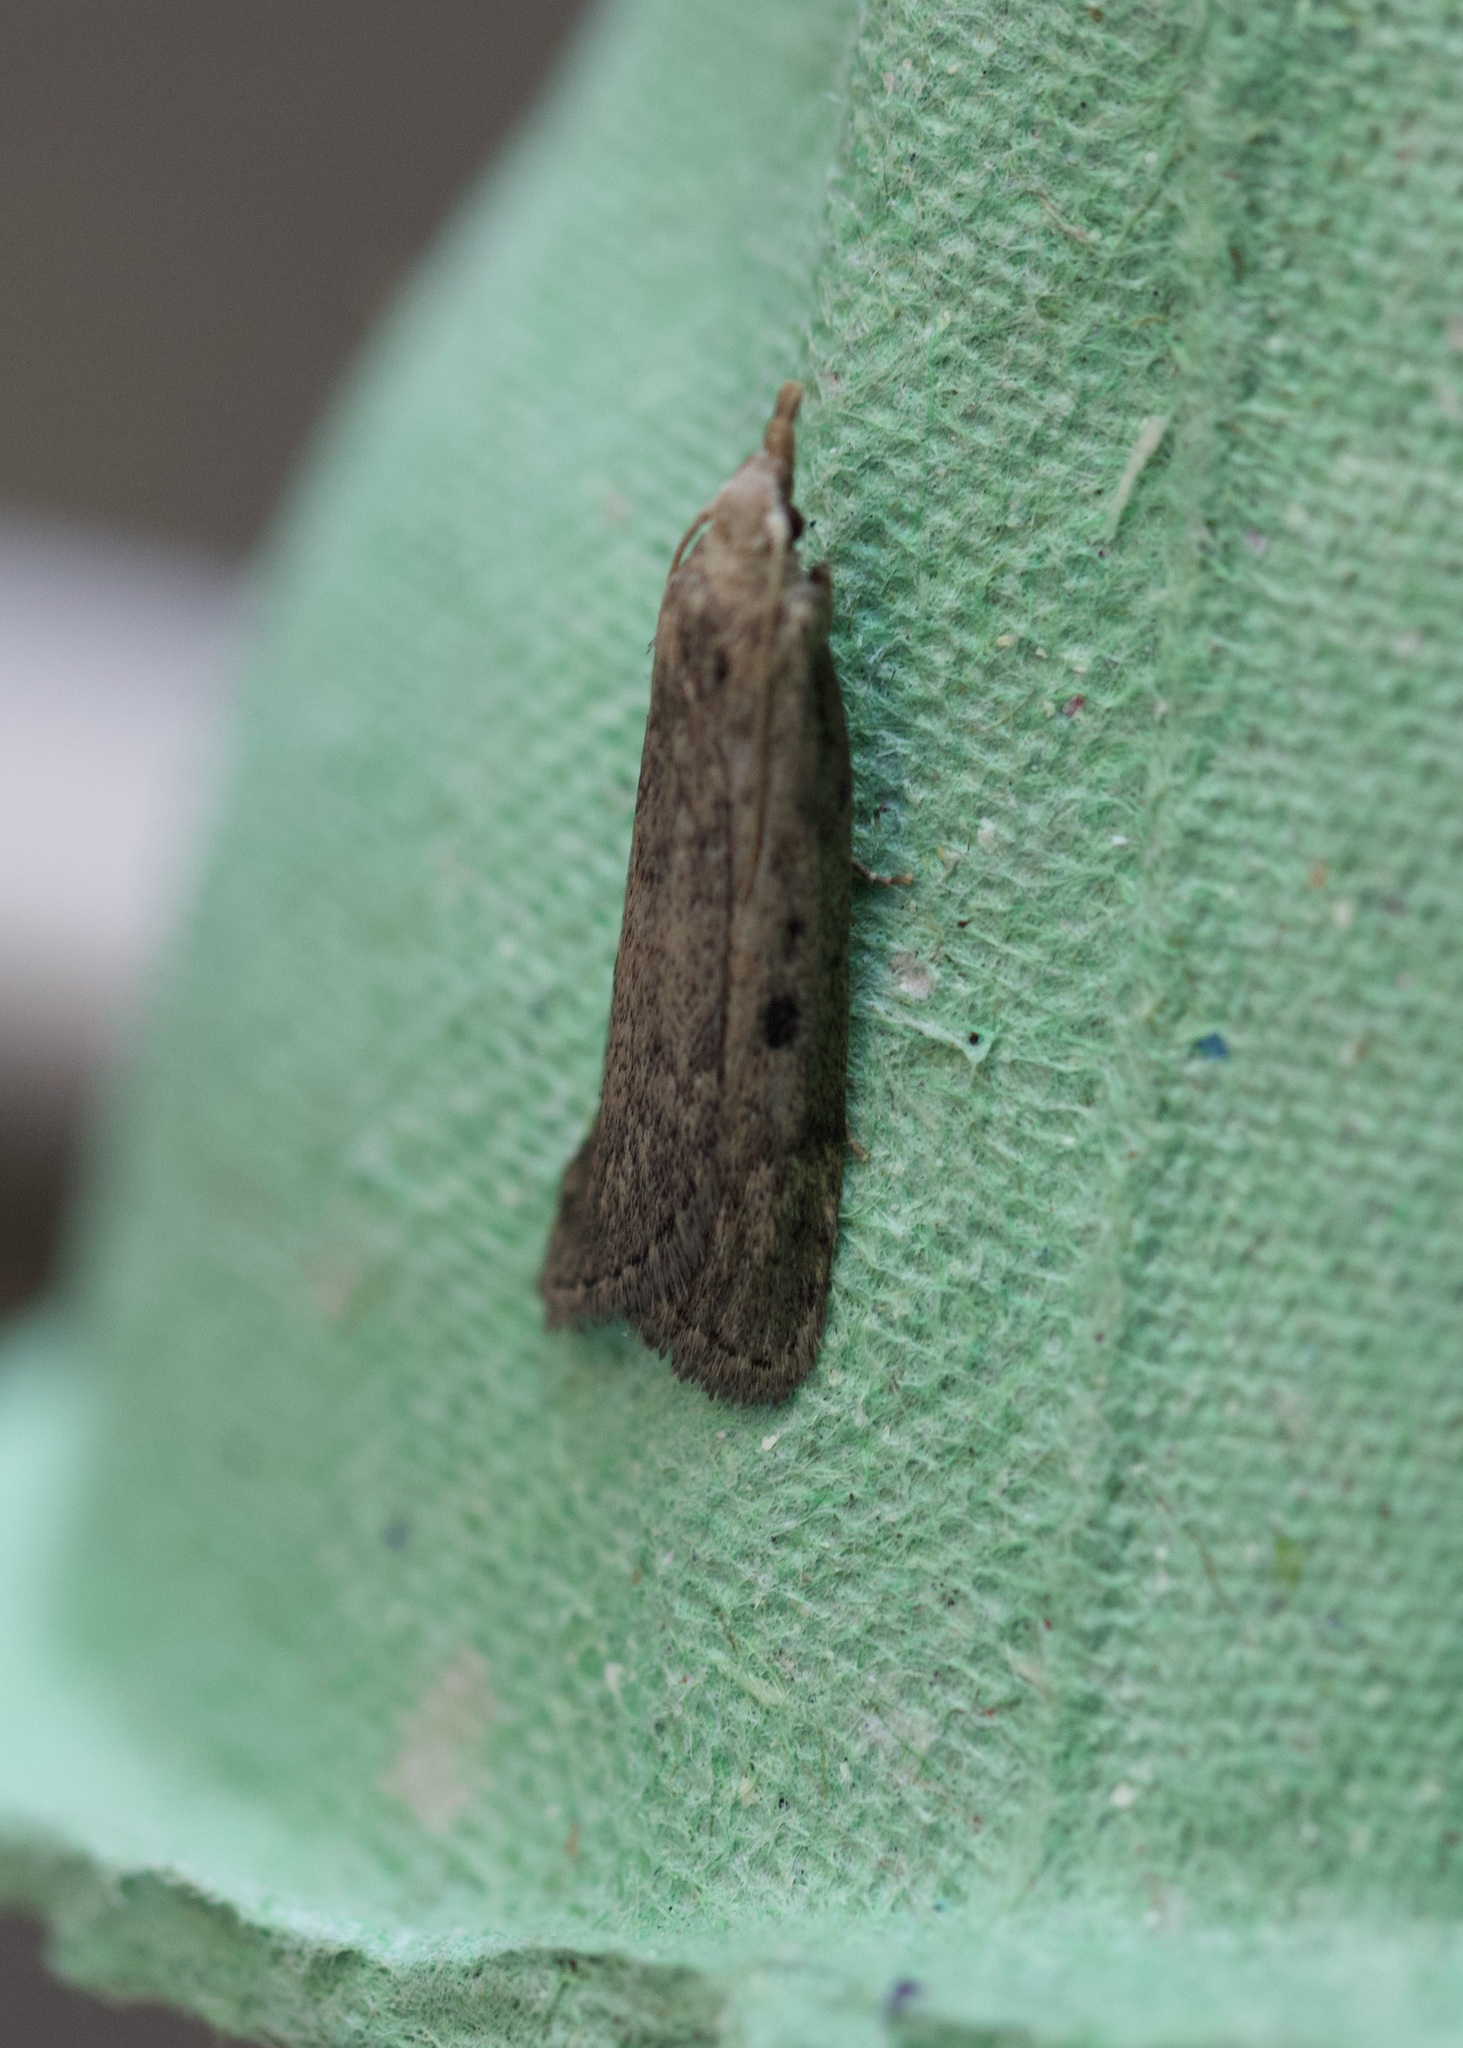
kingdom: Animalia
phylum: Arthropoda
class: Insecta
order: Lepidoptera
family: Pyralidae
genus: Aphomia
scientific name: Aphomia sociella
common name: Bee moth
